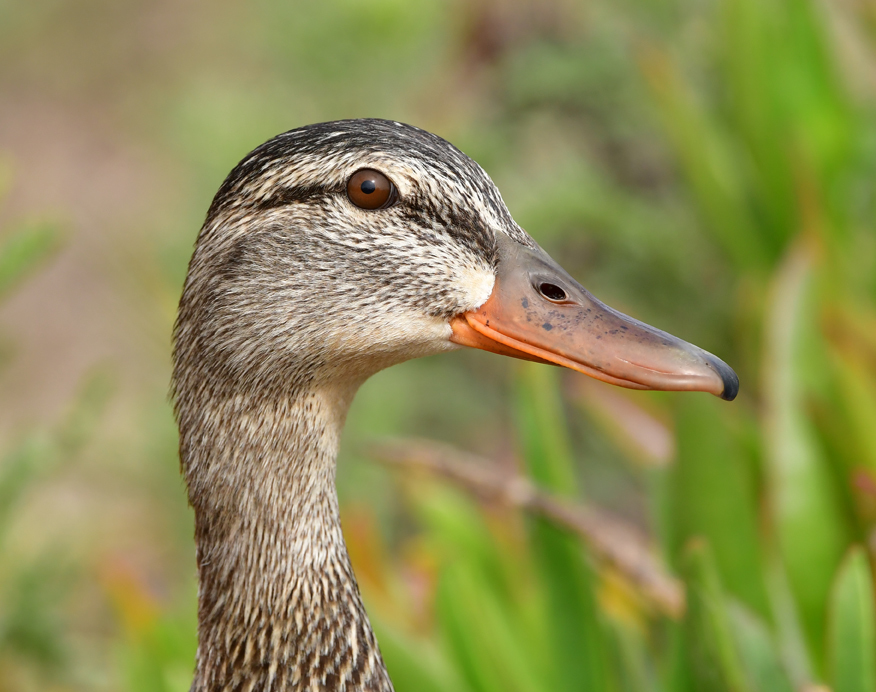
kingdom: Animalia
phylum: Chordata
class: Aves
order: Anseriformes
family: Anatidae
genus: Anas
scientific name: Anas platyrhynchos
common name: Mallard
